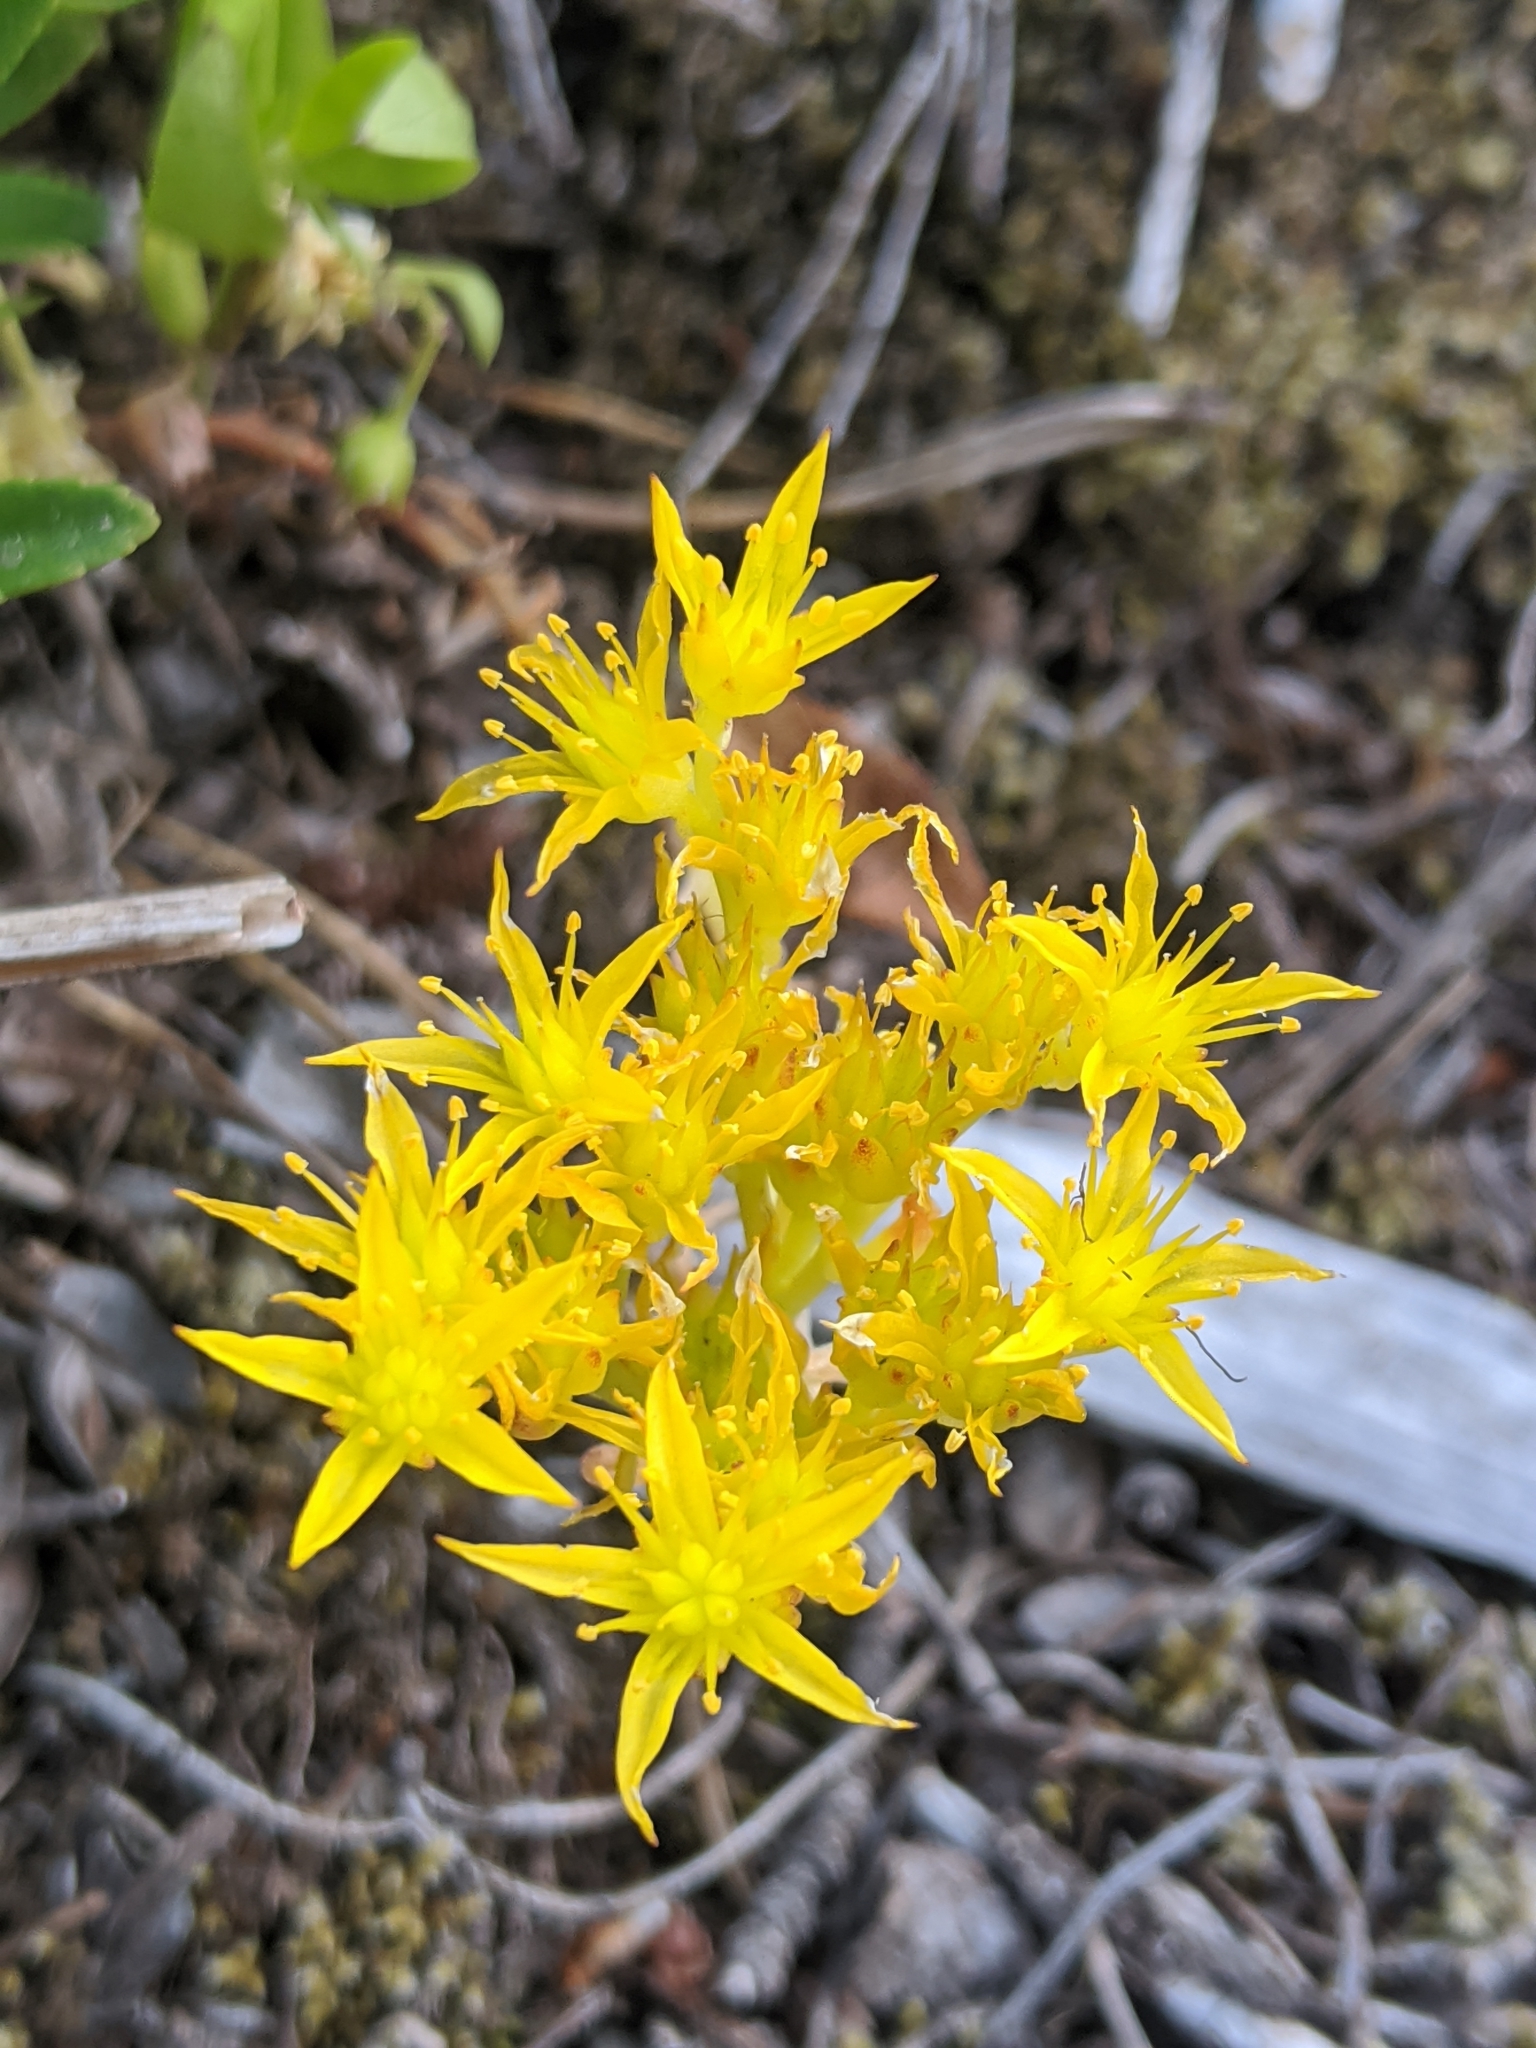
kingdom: Plantae
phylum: Tracheophyta
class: Magnoliopsida
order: Saxifragales
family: Crassulaceae
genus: Sedum
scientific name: Sedum lanceolatum
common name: Common stonecrop
